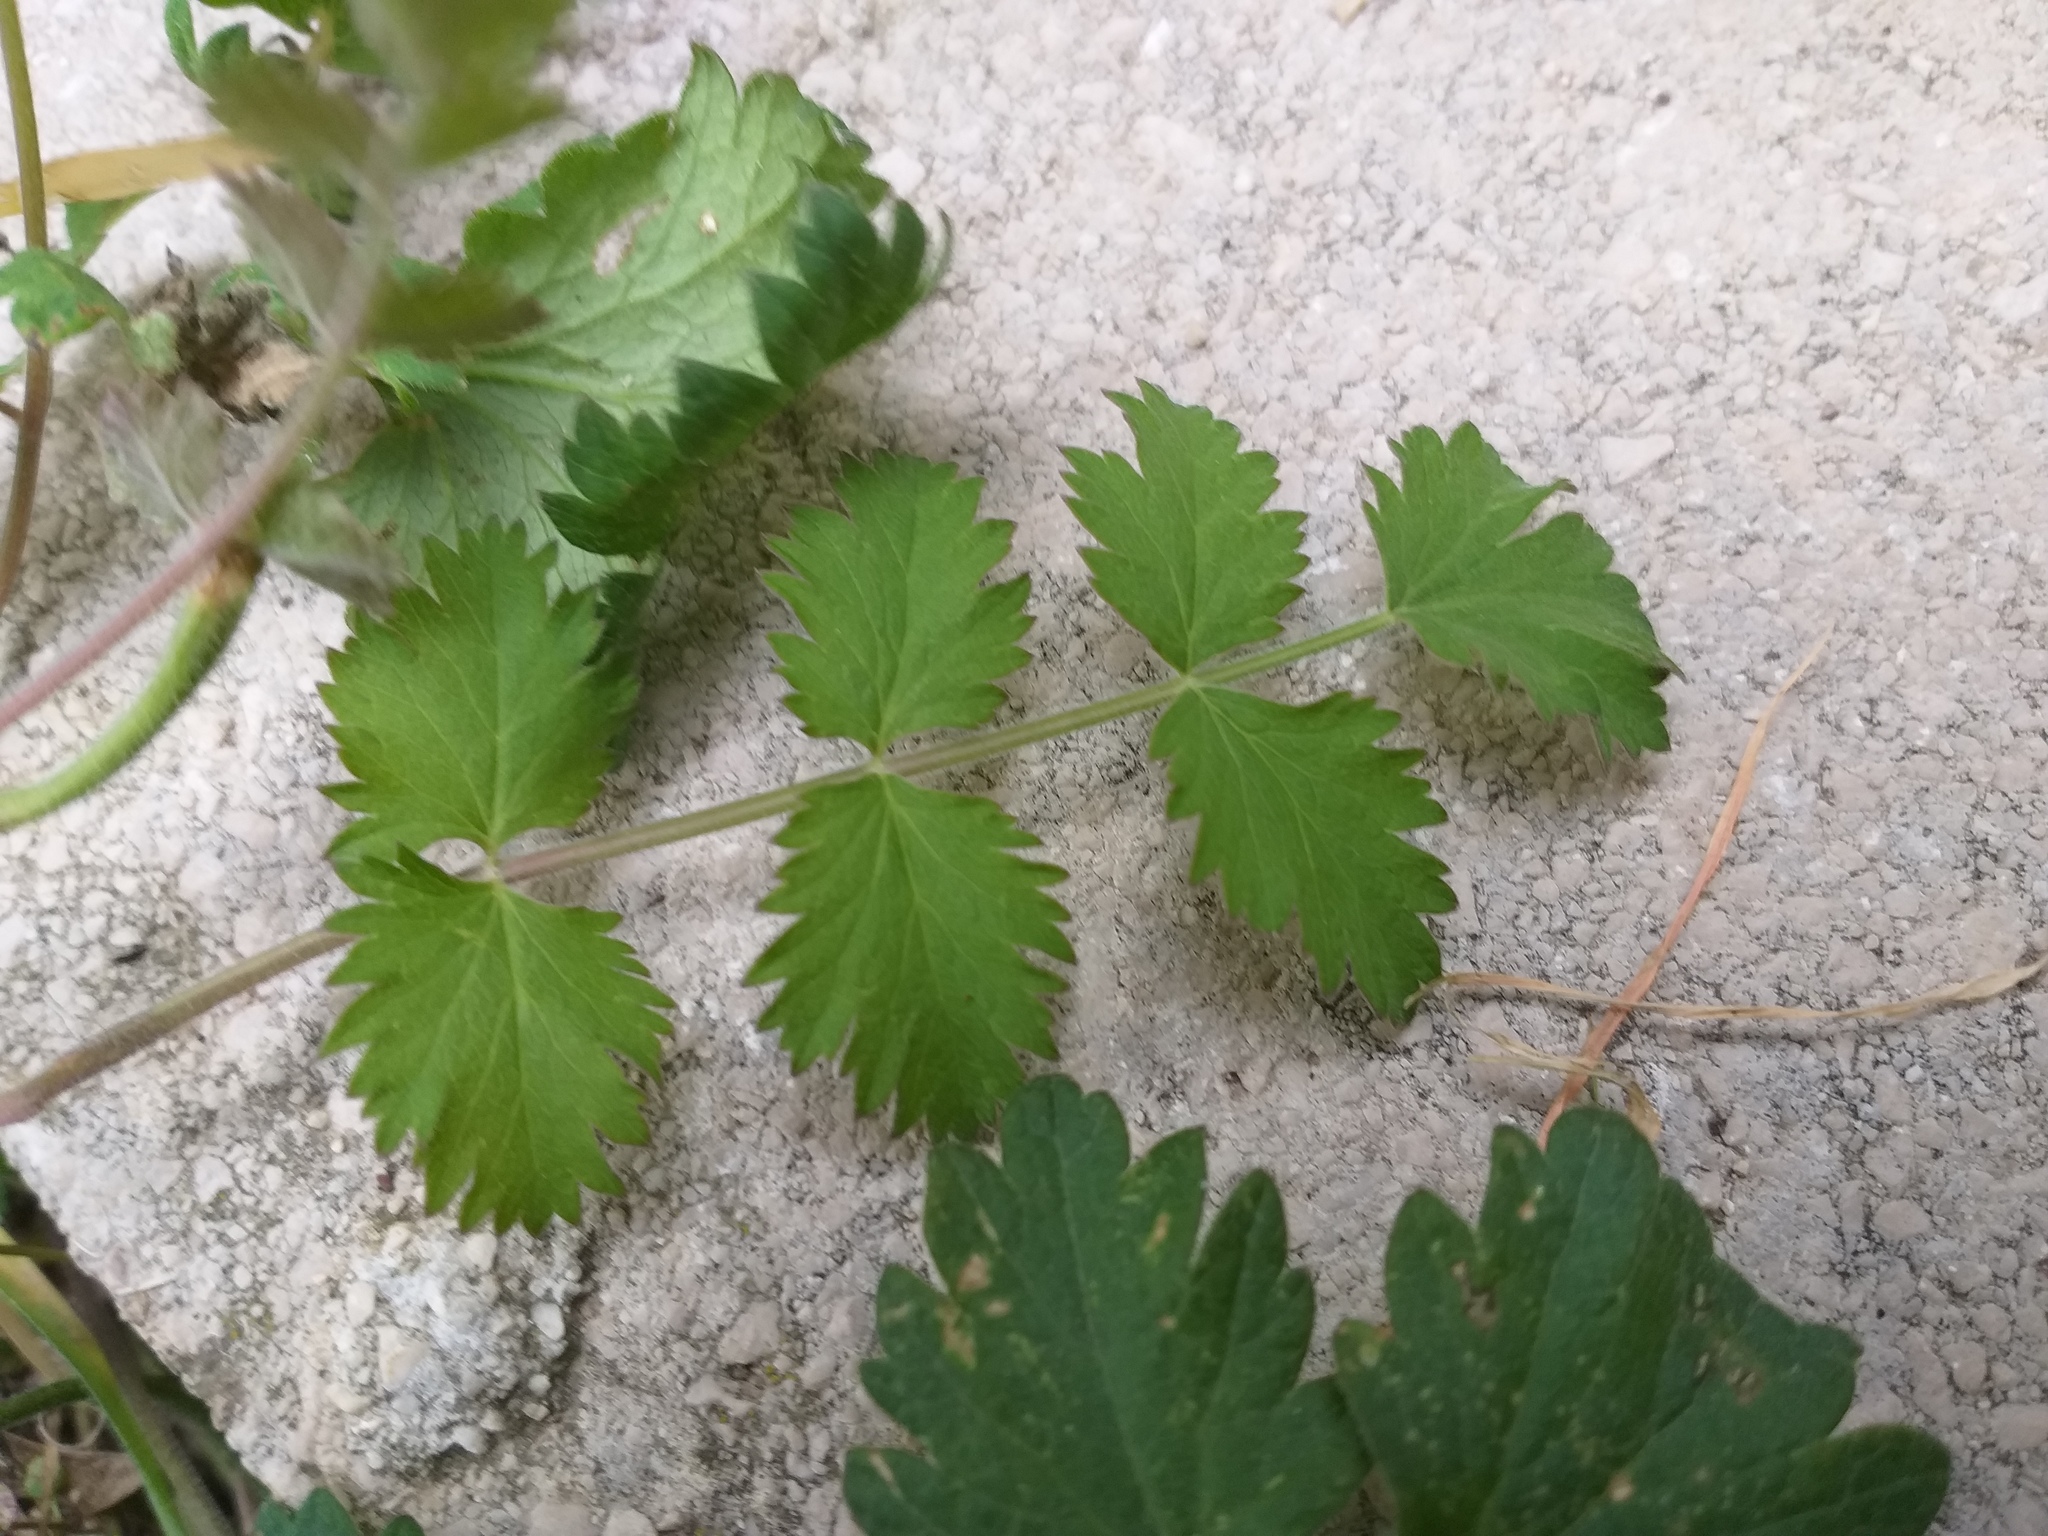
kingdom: Plantae
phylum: Tracheophyta
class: Magnoliopsida
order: Apiales
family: Apiaceae
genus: Pimpinella
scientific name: Pimpinella saxifraga
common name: Burnet-saxifrage
